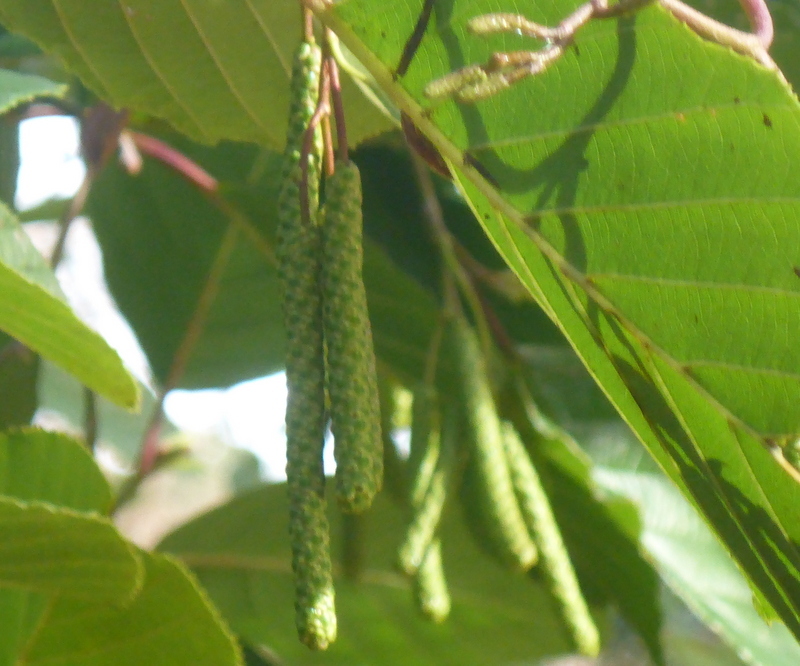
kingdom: Plantae
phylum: Tracheophyta
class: Magnoliopsida
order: Fagales
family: Betulaceae
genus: Alnus
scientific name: Alnus serrulata
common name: Hazel alder
